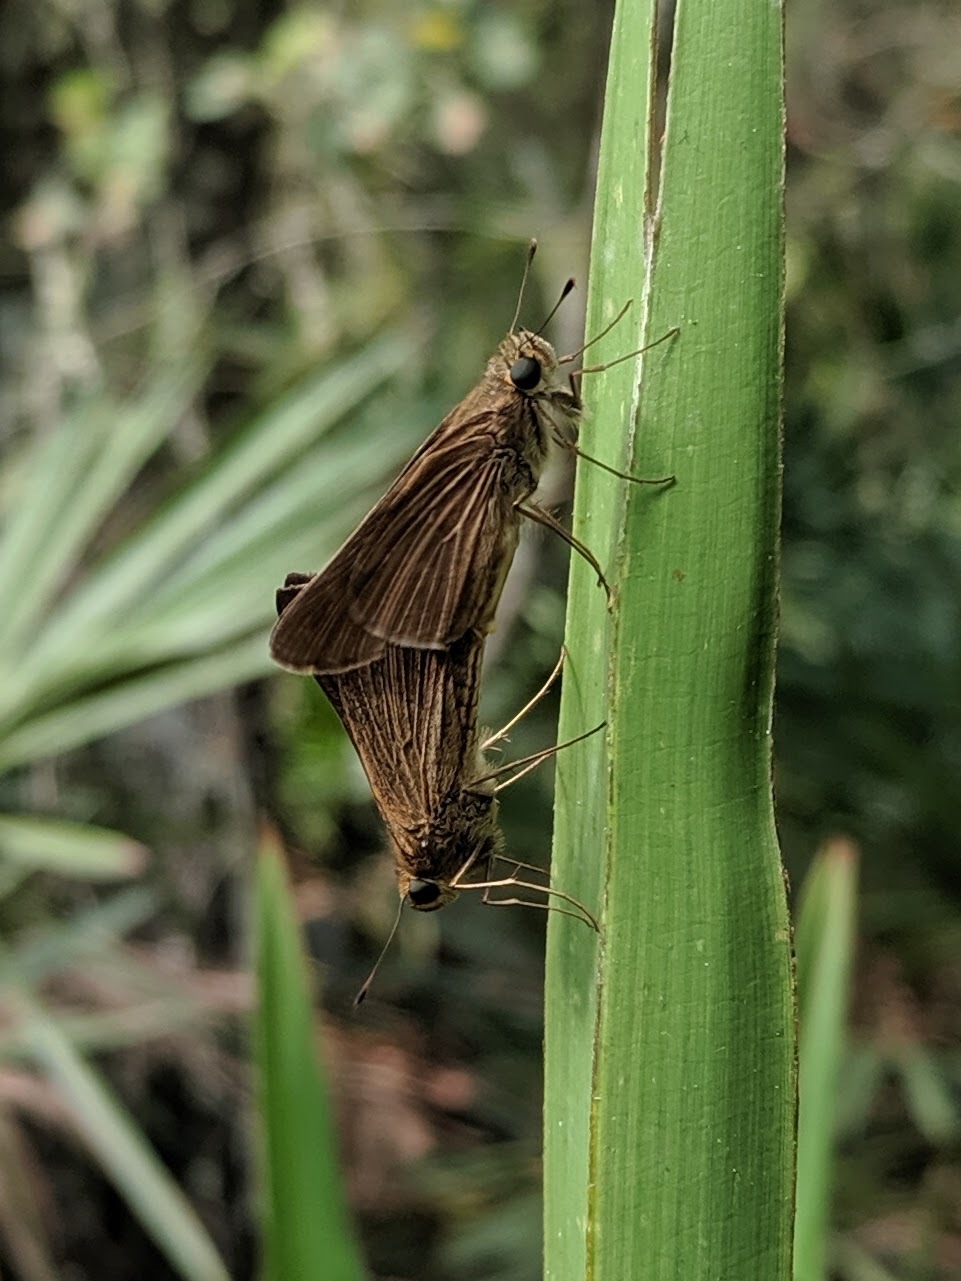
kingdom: Animalia
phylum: Arthropoda
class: Insecta
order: Lepidoptera
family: Hesperiidae
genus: Panoquina
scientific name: Panoquina ocola
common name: Ocola skipper
